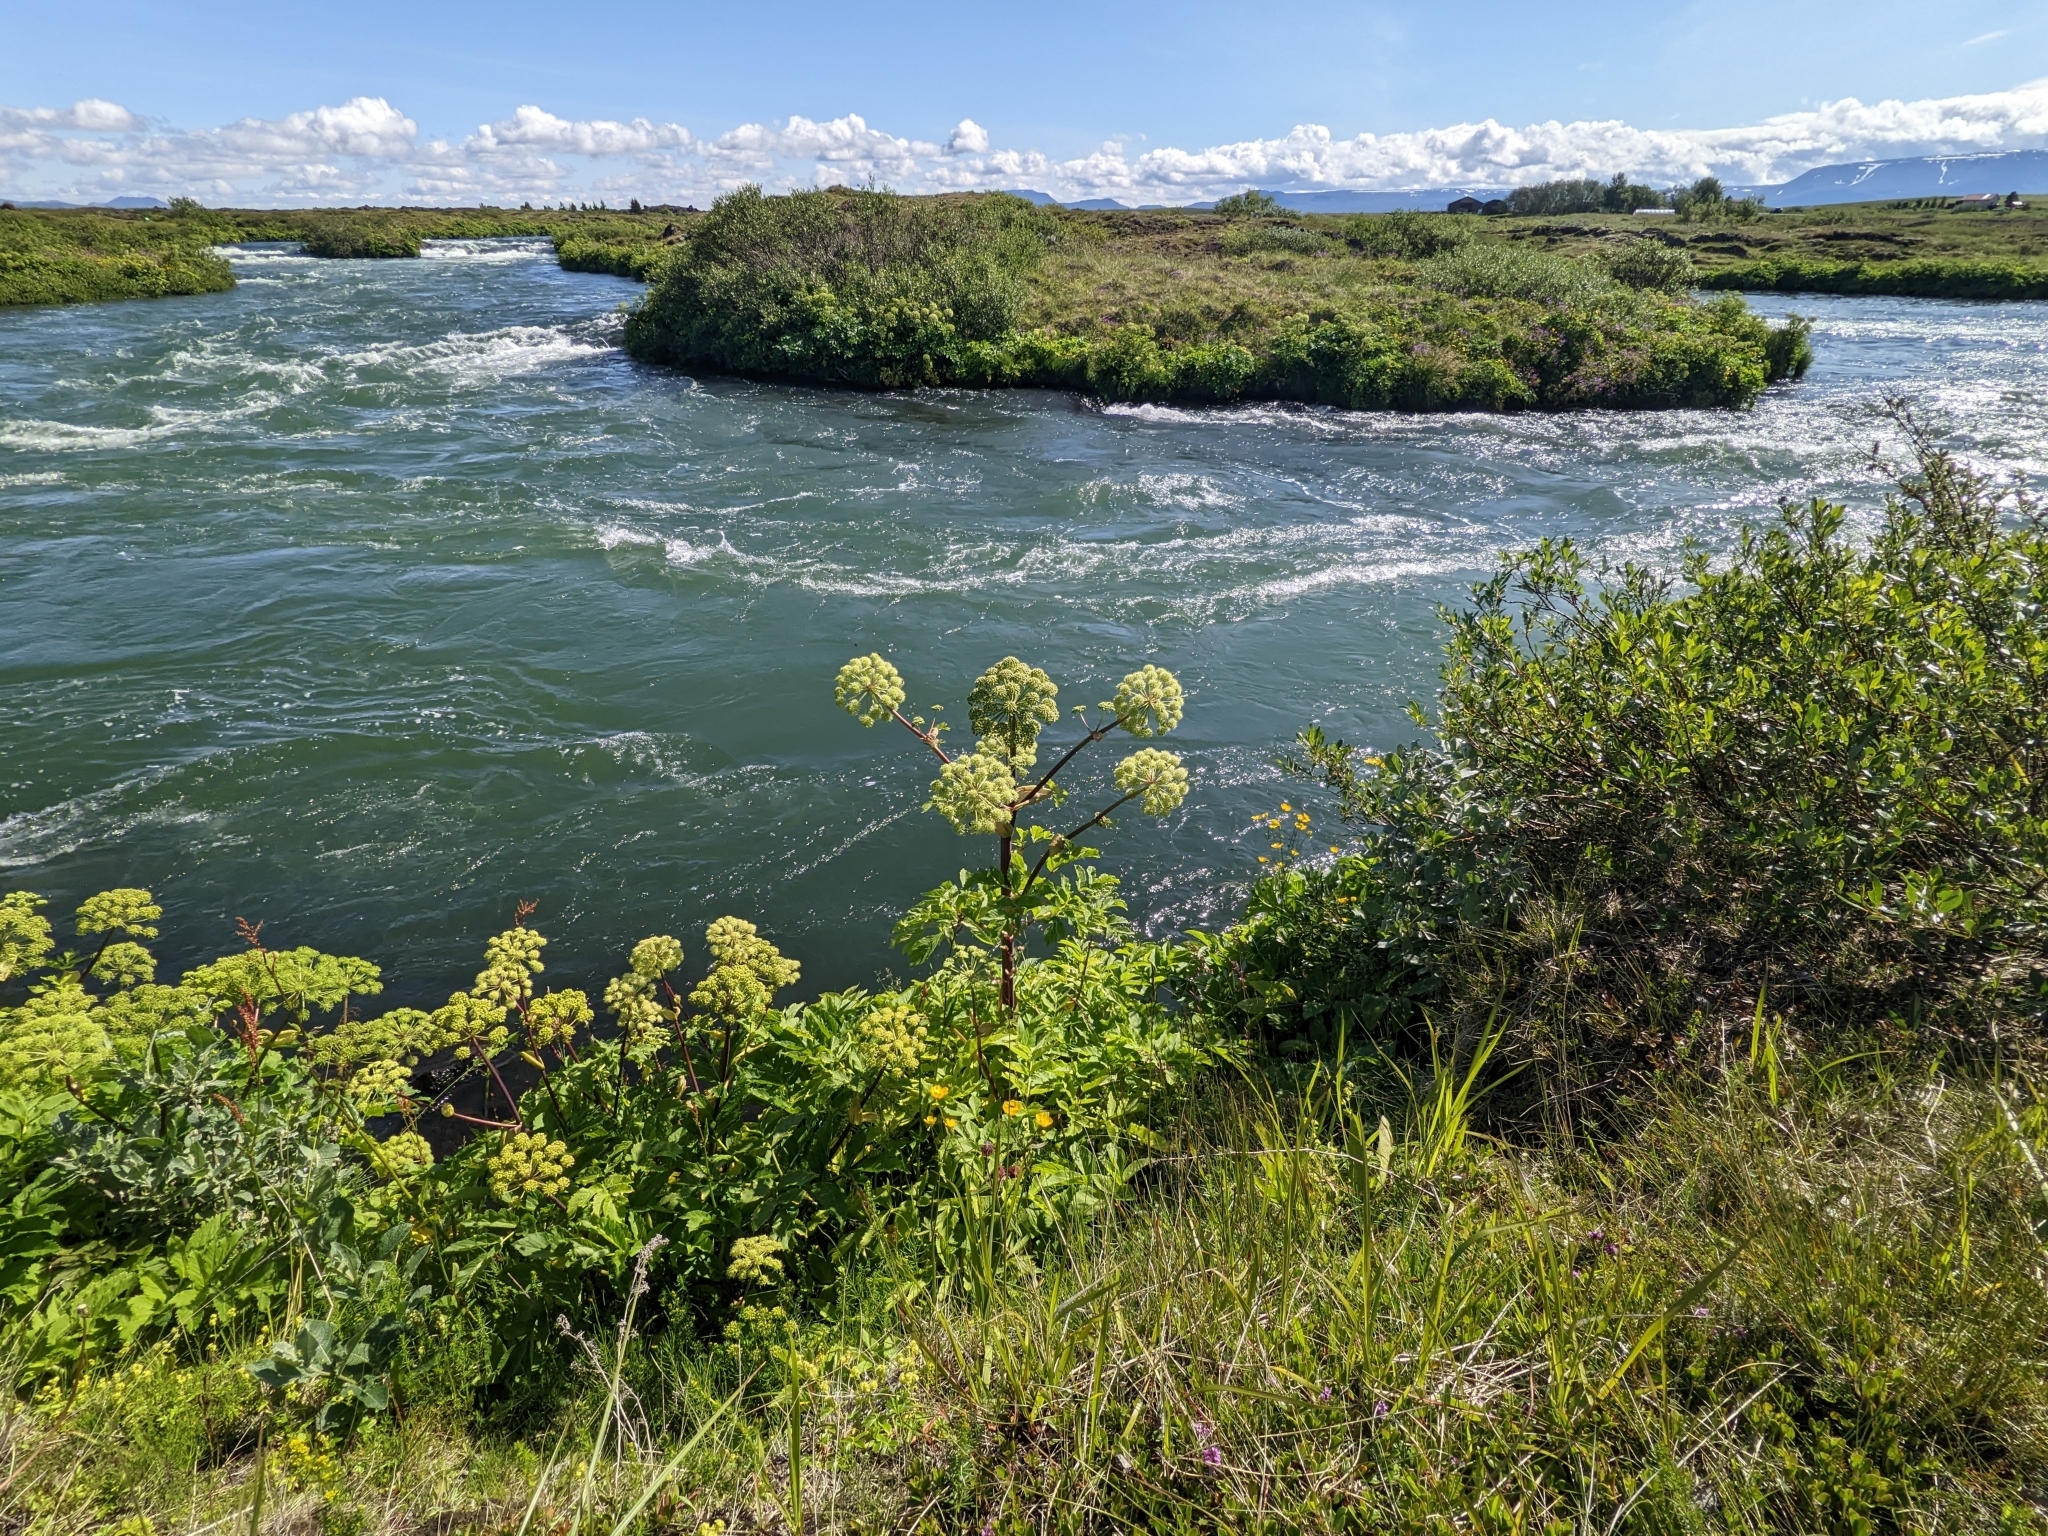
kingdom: Plantae
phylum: Tracheophyta
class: Magnoliopsida
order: Apiales
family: Apiaceae
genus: Angelica
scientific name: Angelica archangelica
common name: Garden angelica
